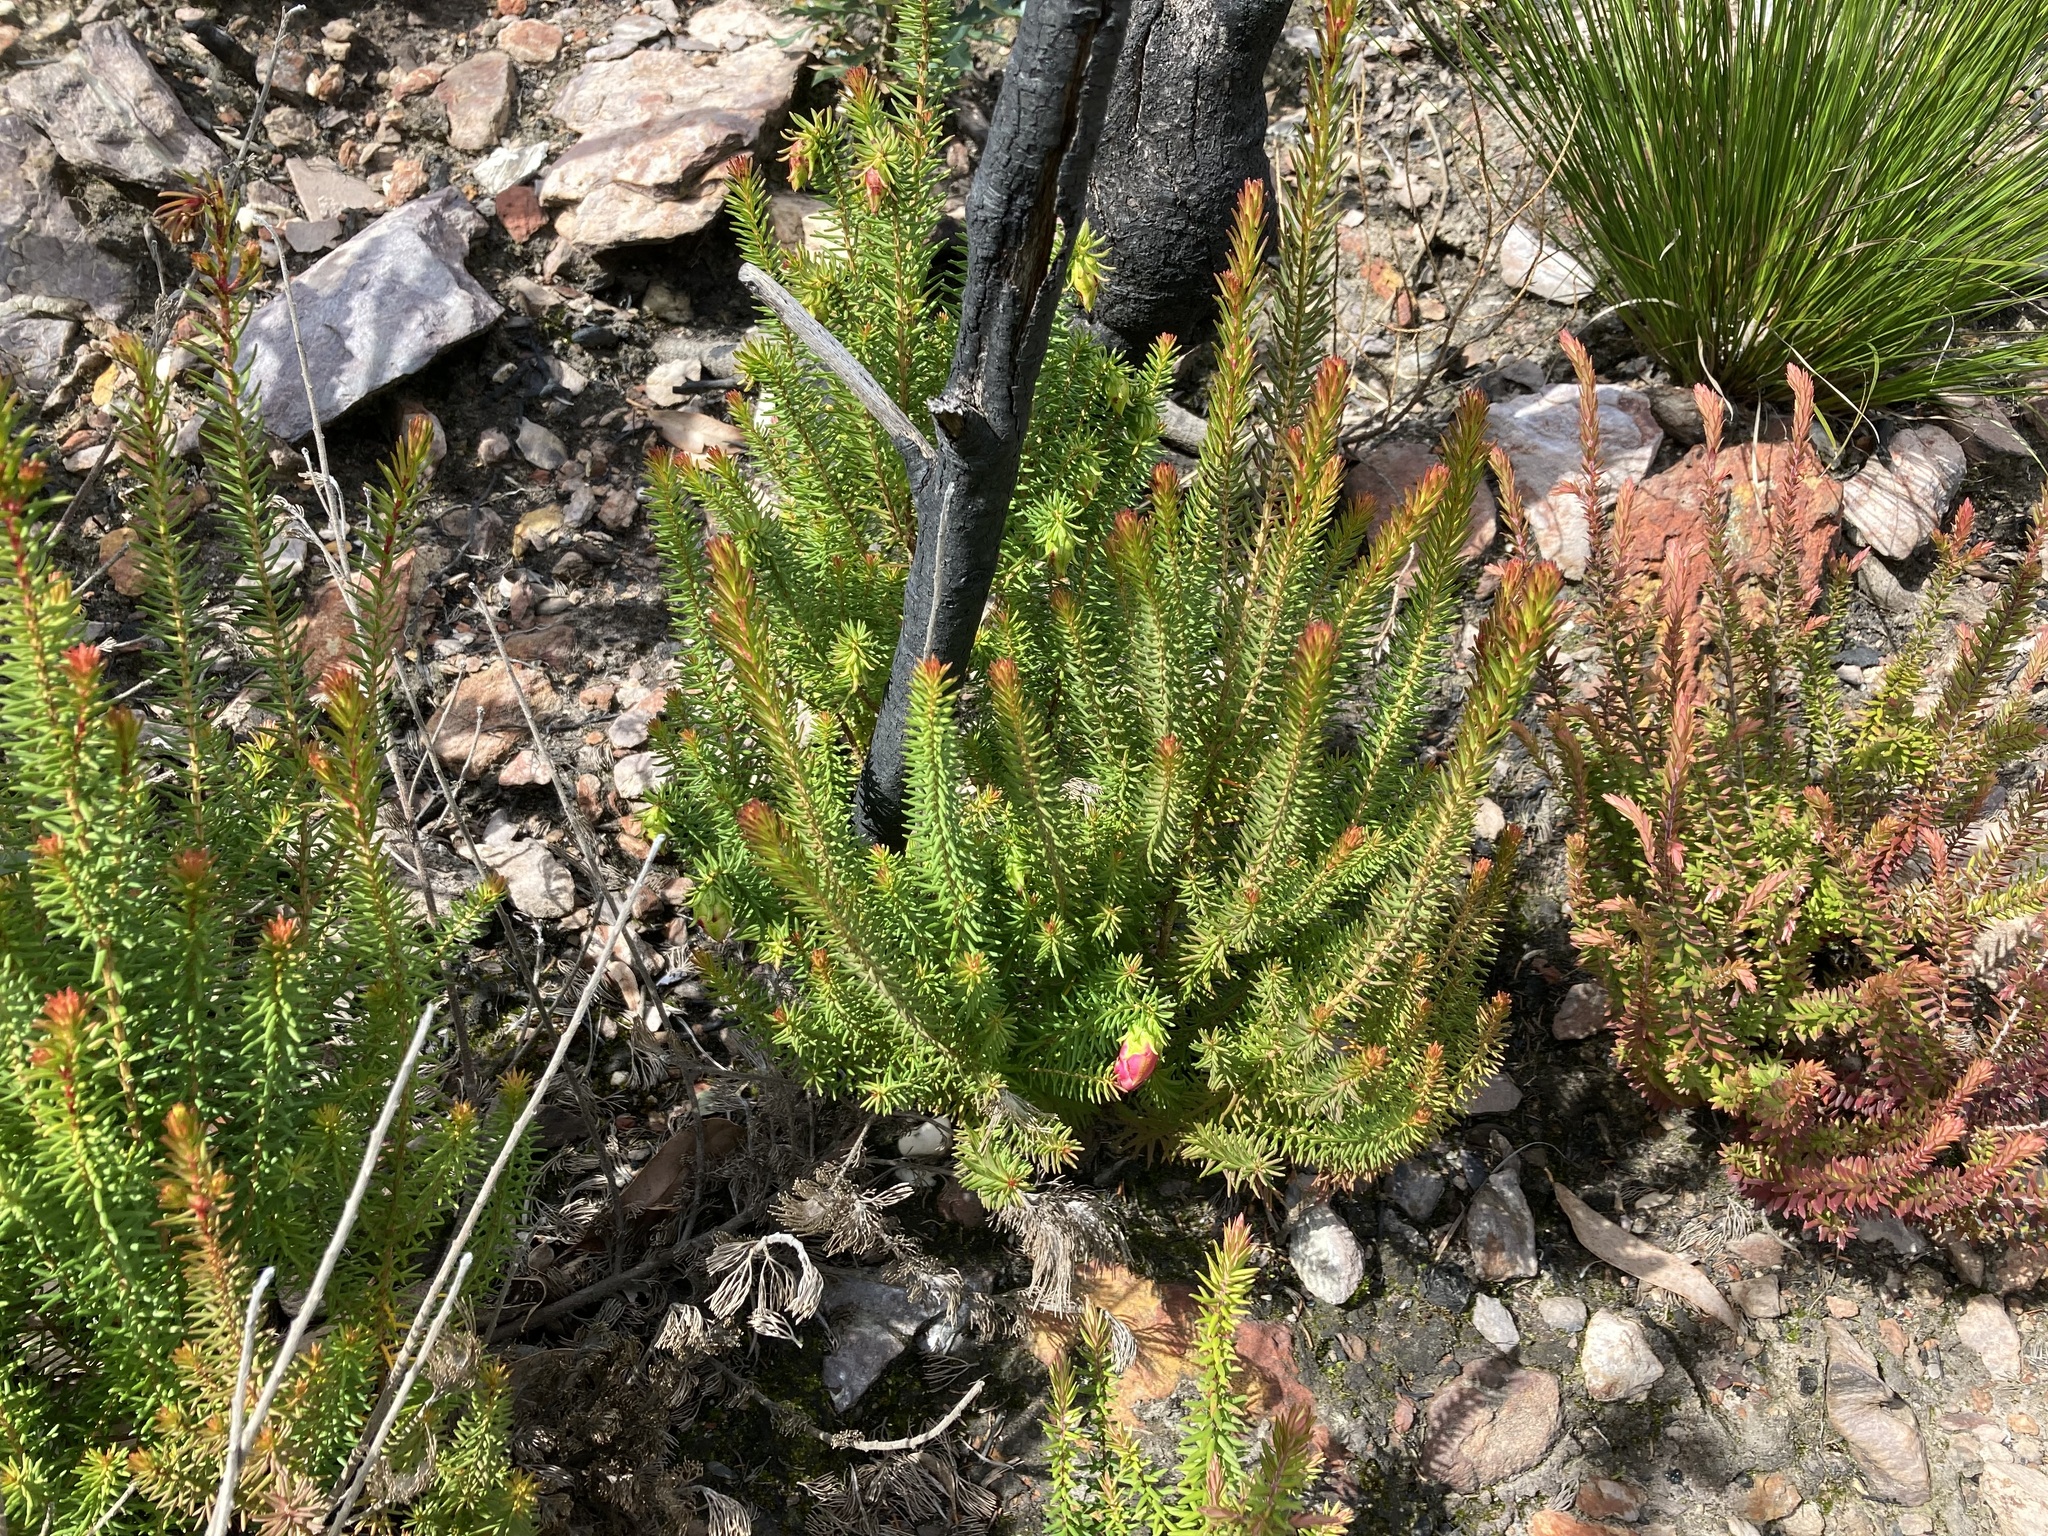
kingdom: Plantae
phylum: Tracheophyta
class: Magnoliopsida
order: Myrtales
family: Myrtaceae
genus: Darwinia
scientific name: Darwinia oxylepis
